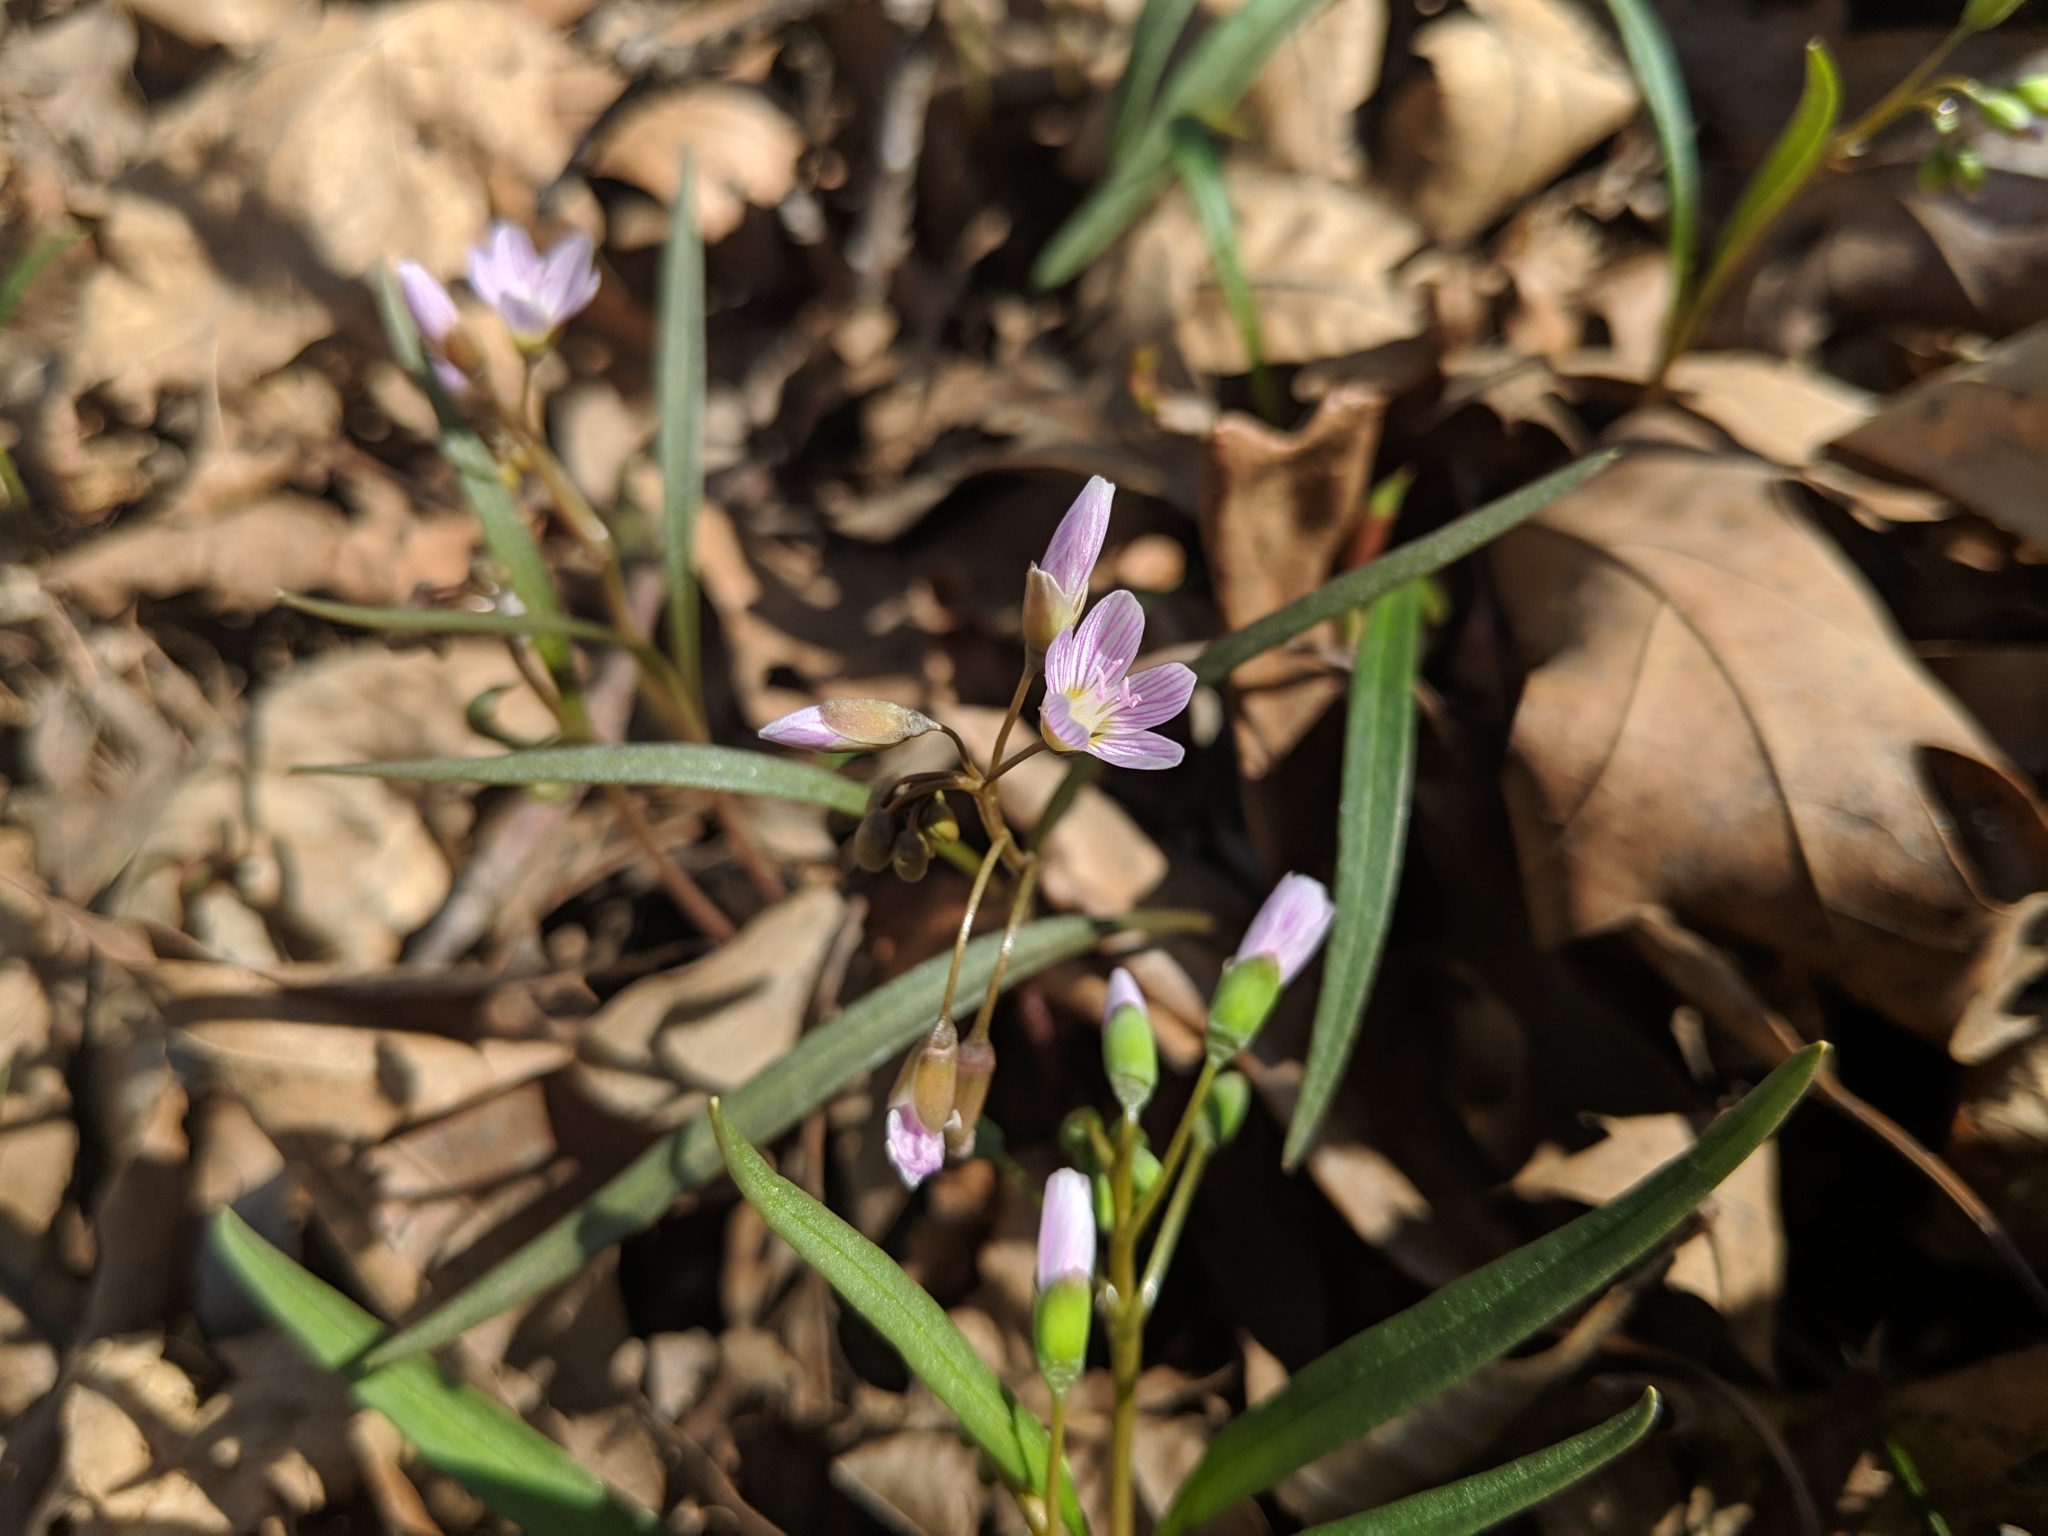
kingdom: Plantae
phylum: Tracheophyta
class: Magnoliopsida
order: Caryophyllales
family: Montiaceae
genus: Claytonia
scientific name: Claytonia virginica
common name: Virginia springbeauty
